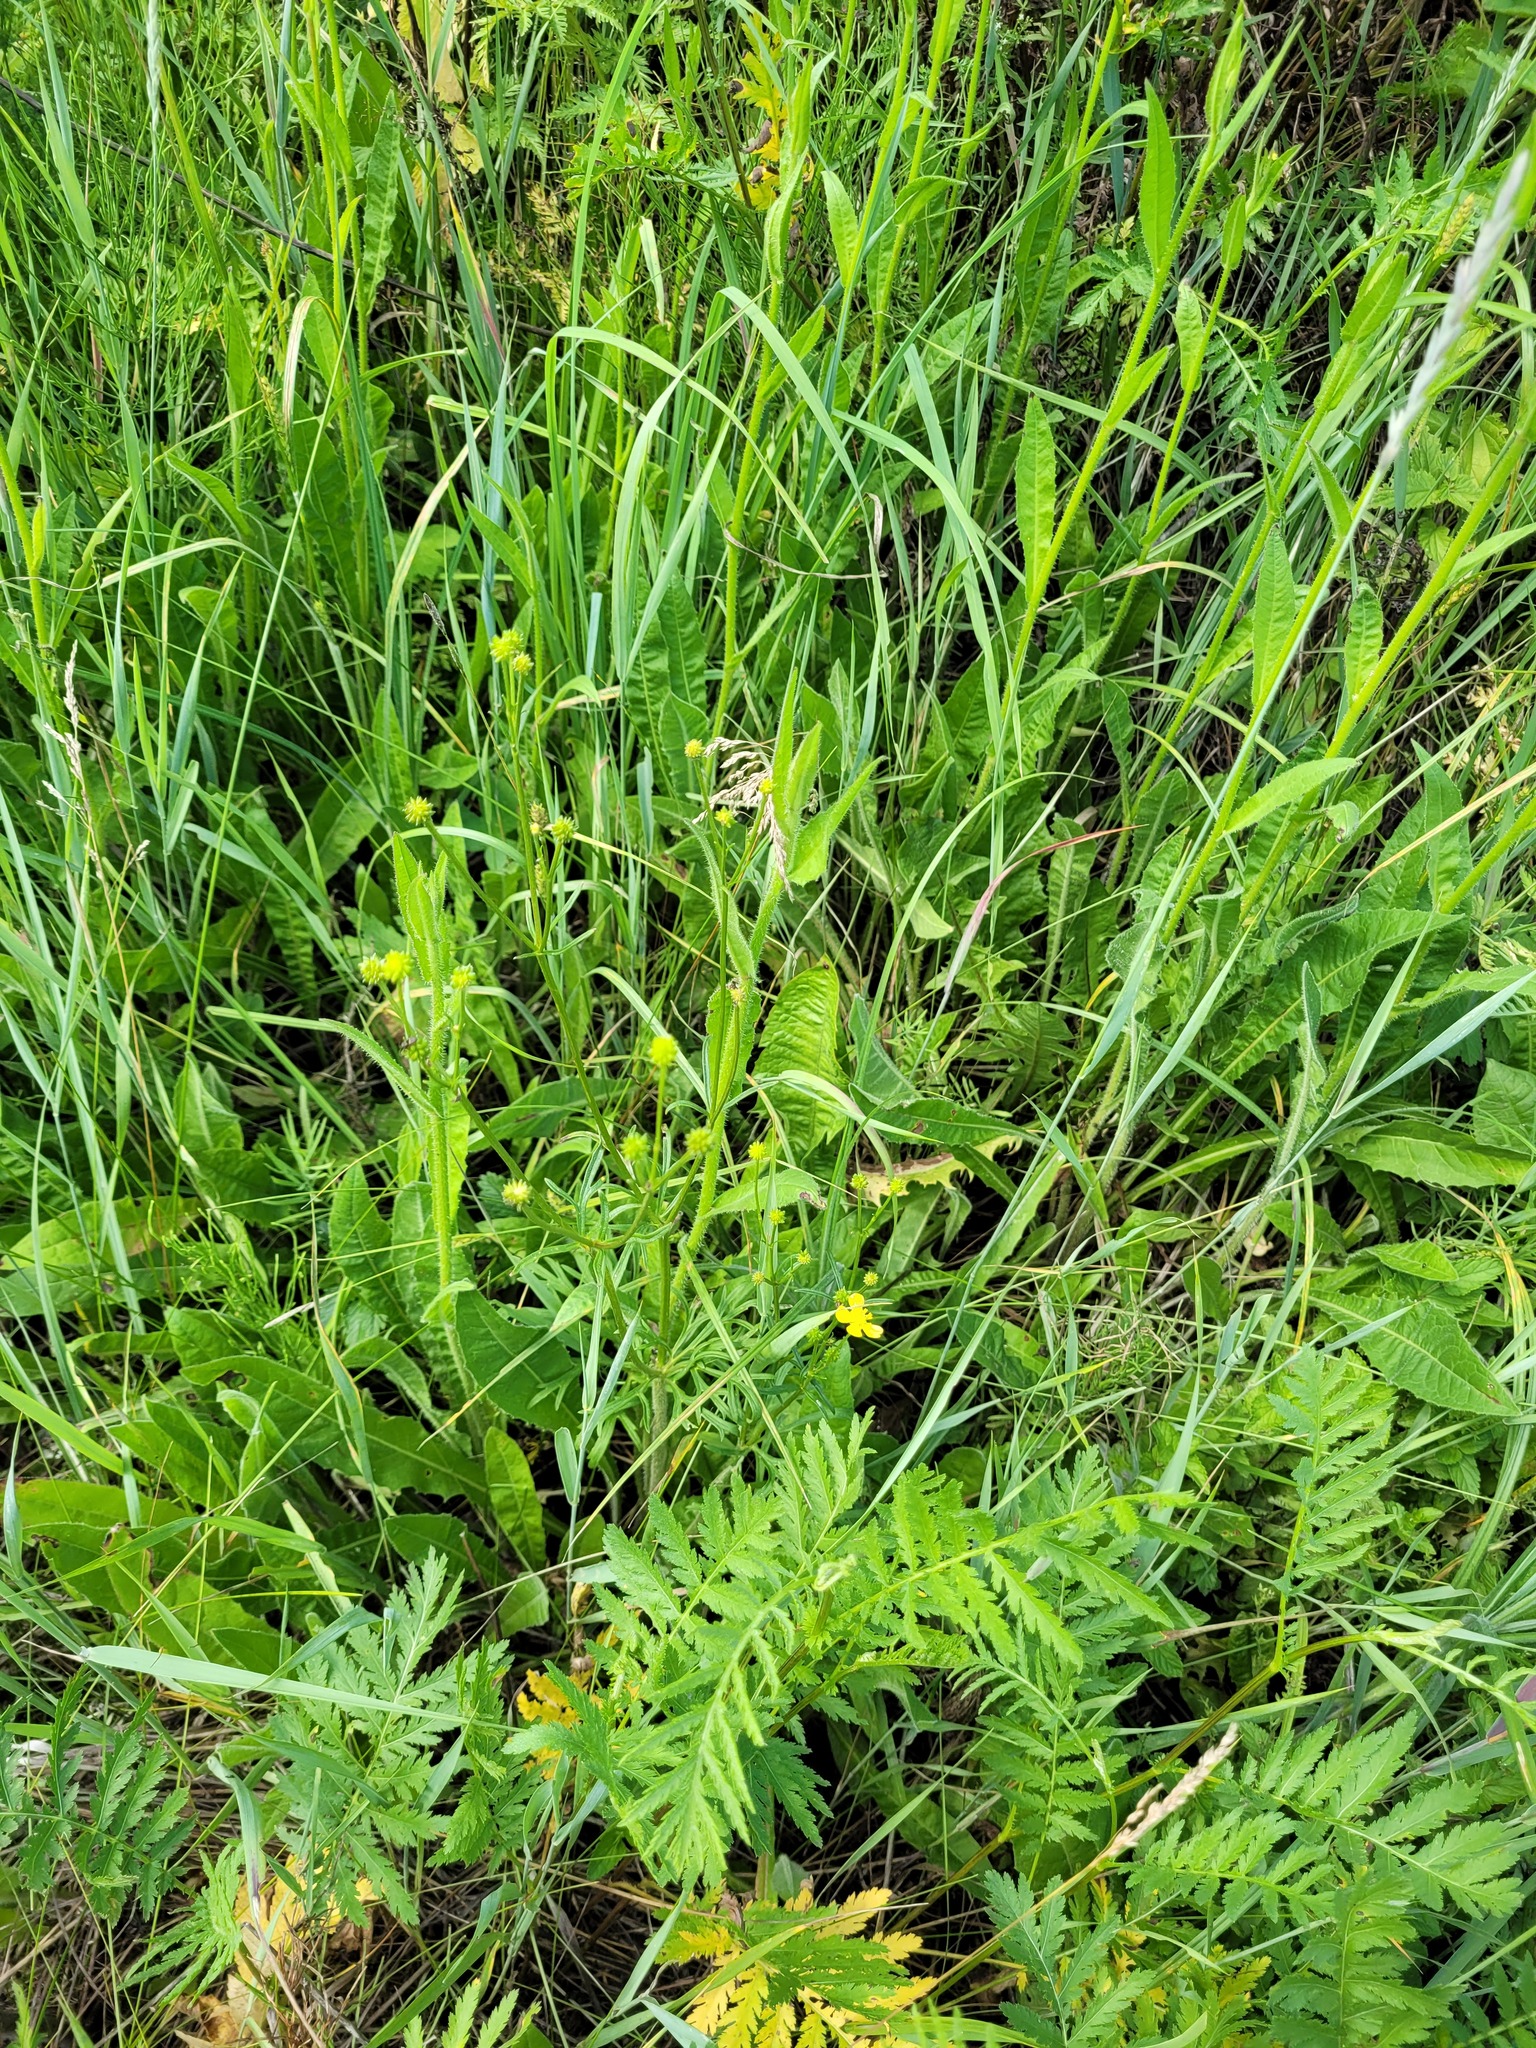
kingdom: Plantae
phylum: Tracheophyta
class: Magnoliopsida
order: Ranunculales
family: Ranunculaceae
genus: Ranunculus
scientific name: Ranunculus polyanthemos
